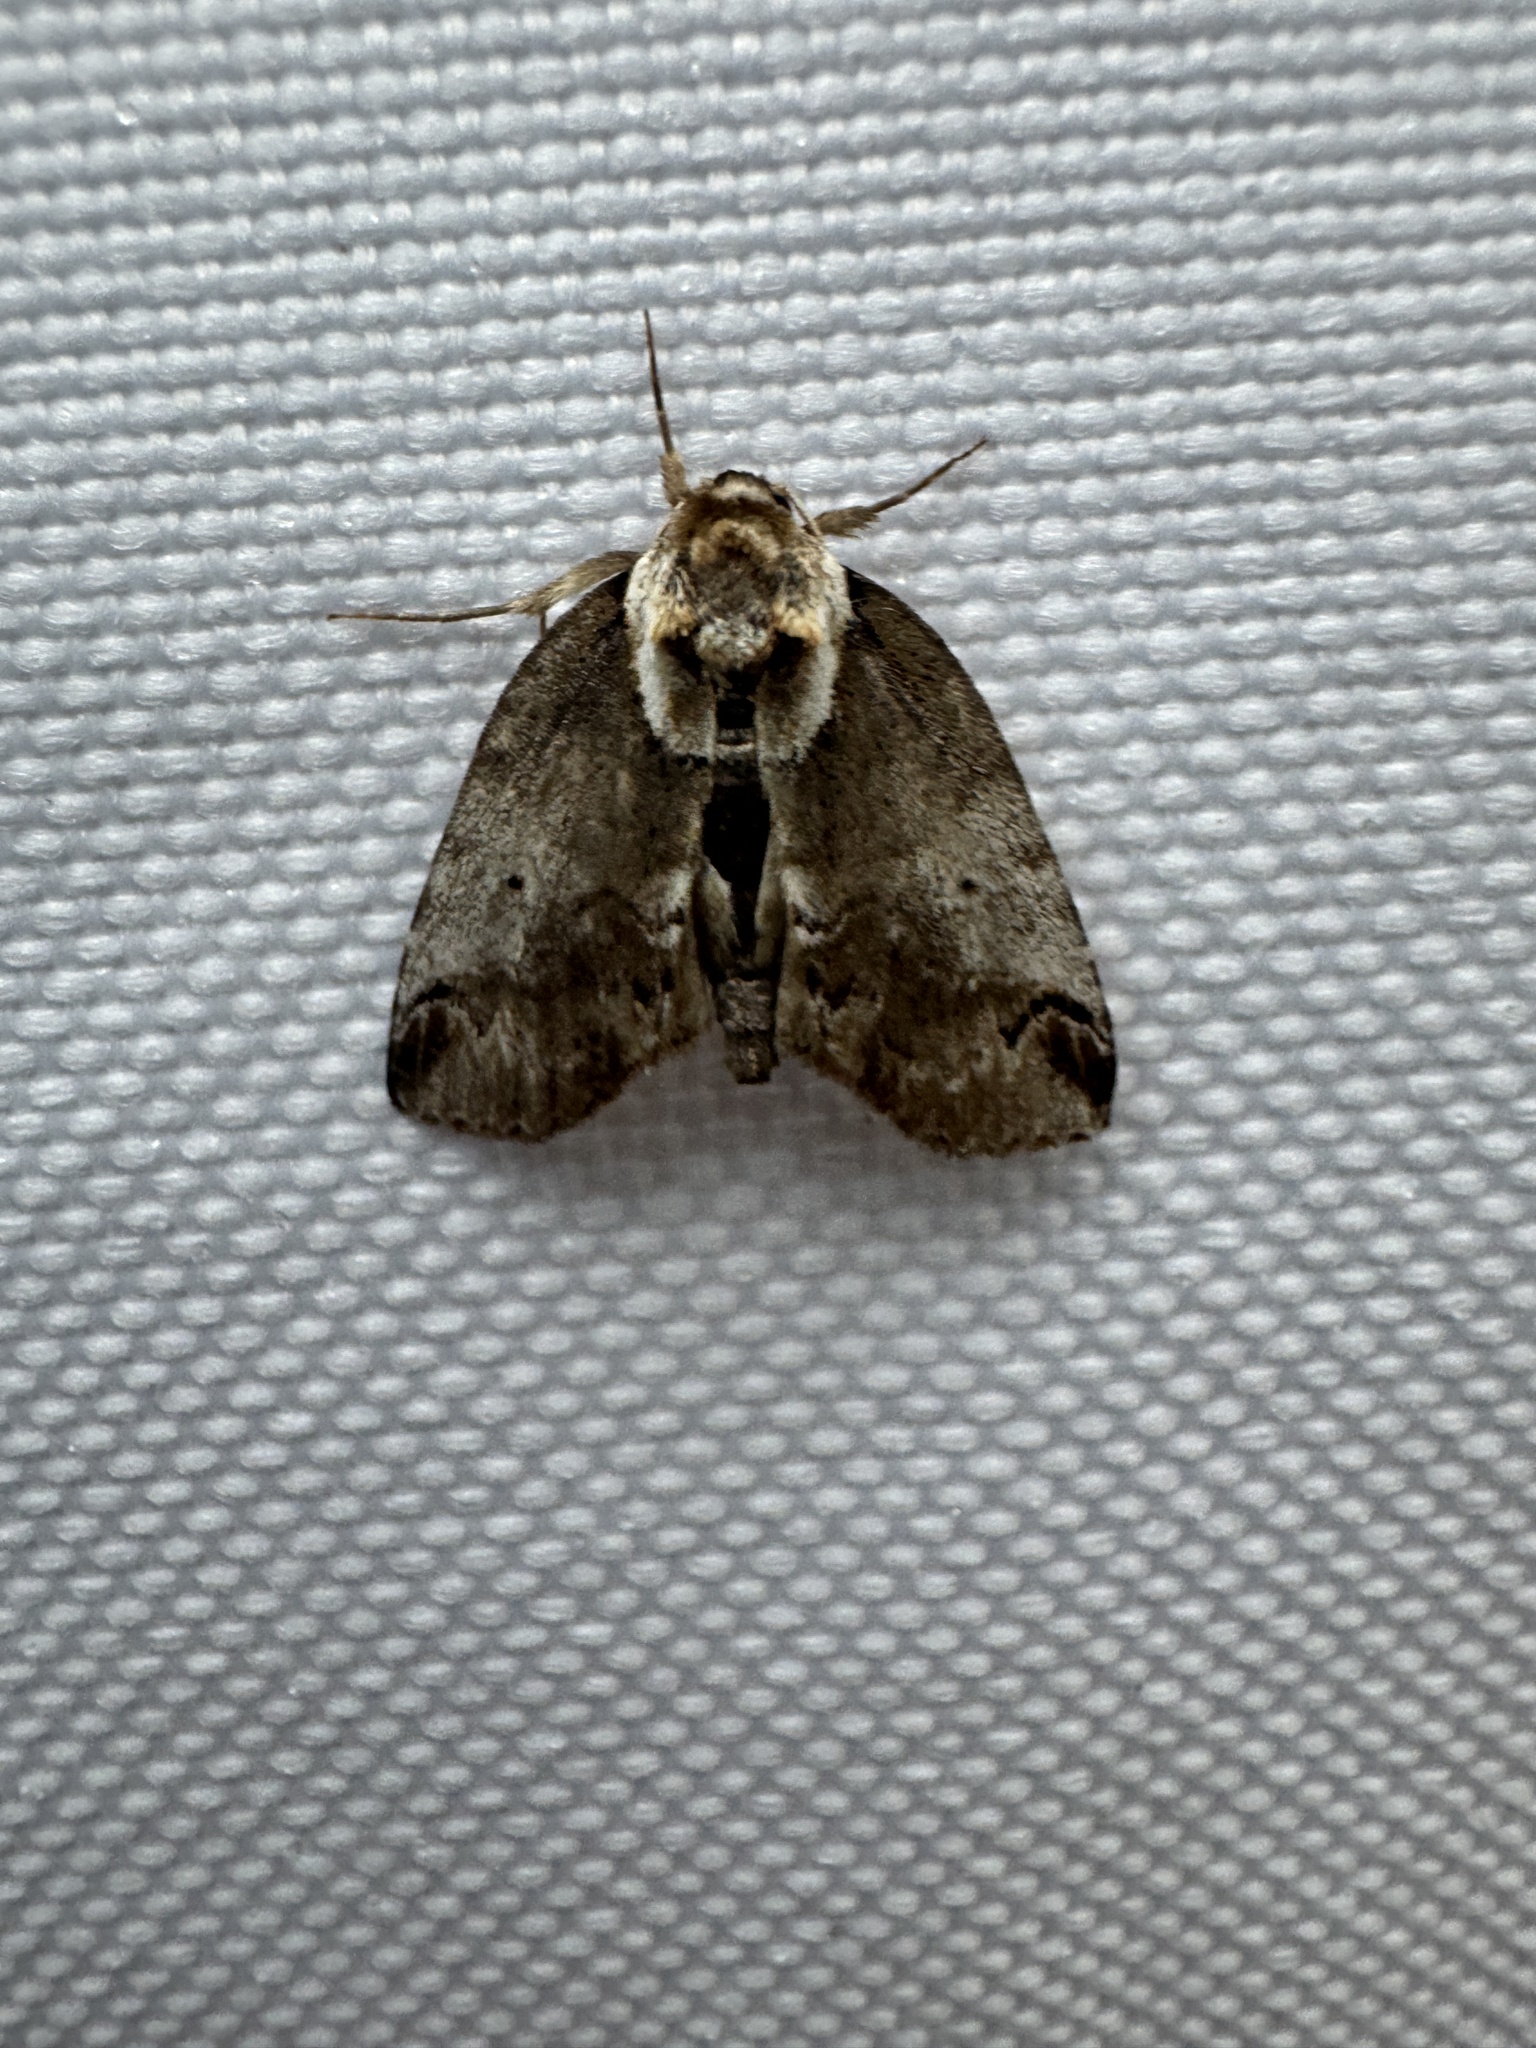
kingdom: Animalia
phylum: Arthropoda
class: Insecta
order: Lepidoptera
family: Nolidae
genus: Baileya
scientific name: Baileya ophthalmica
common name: Eyed baileya moth
